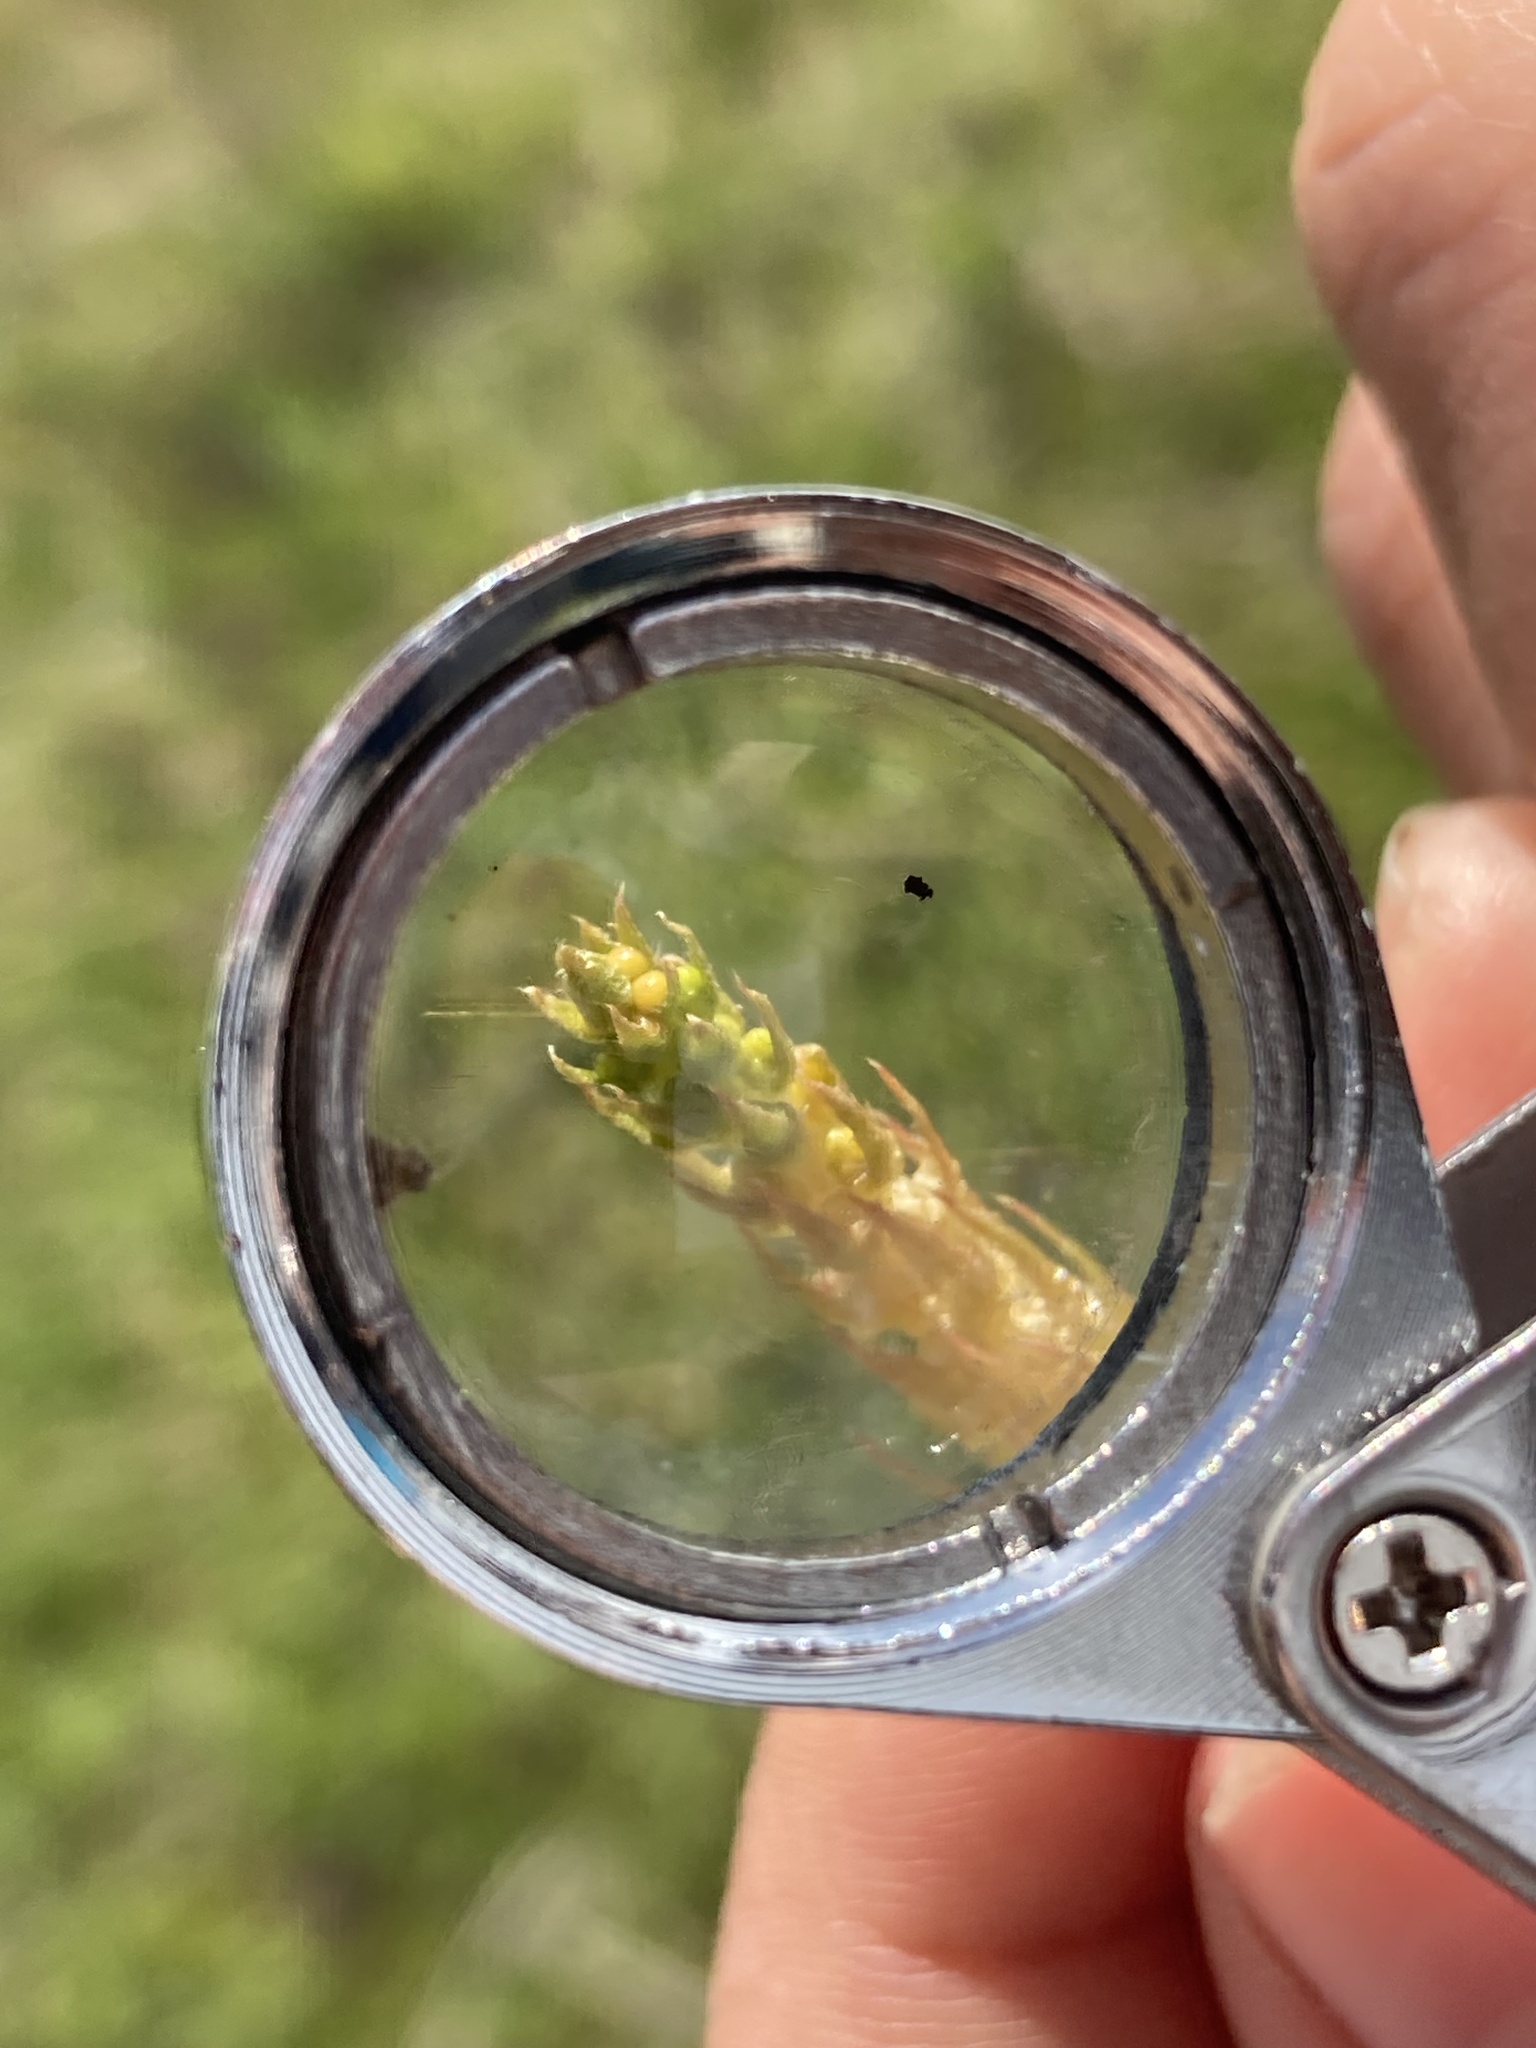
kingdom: Plantae
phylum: Tracheophyta
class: Lycopodiopsida
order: Selaginellales
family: Selaginellaceae
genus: Selaginella
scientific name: Selaginella selaginoides
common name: Prickly mountain-moss
